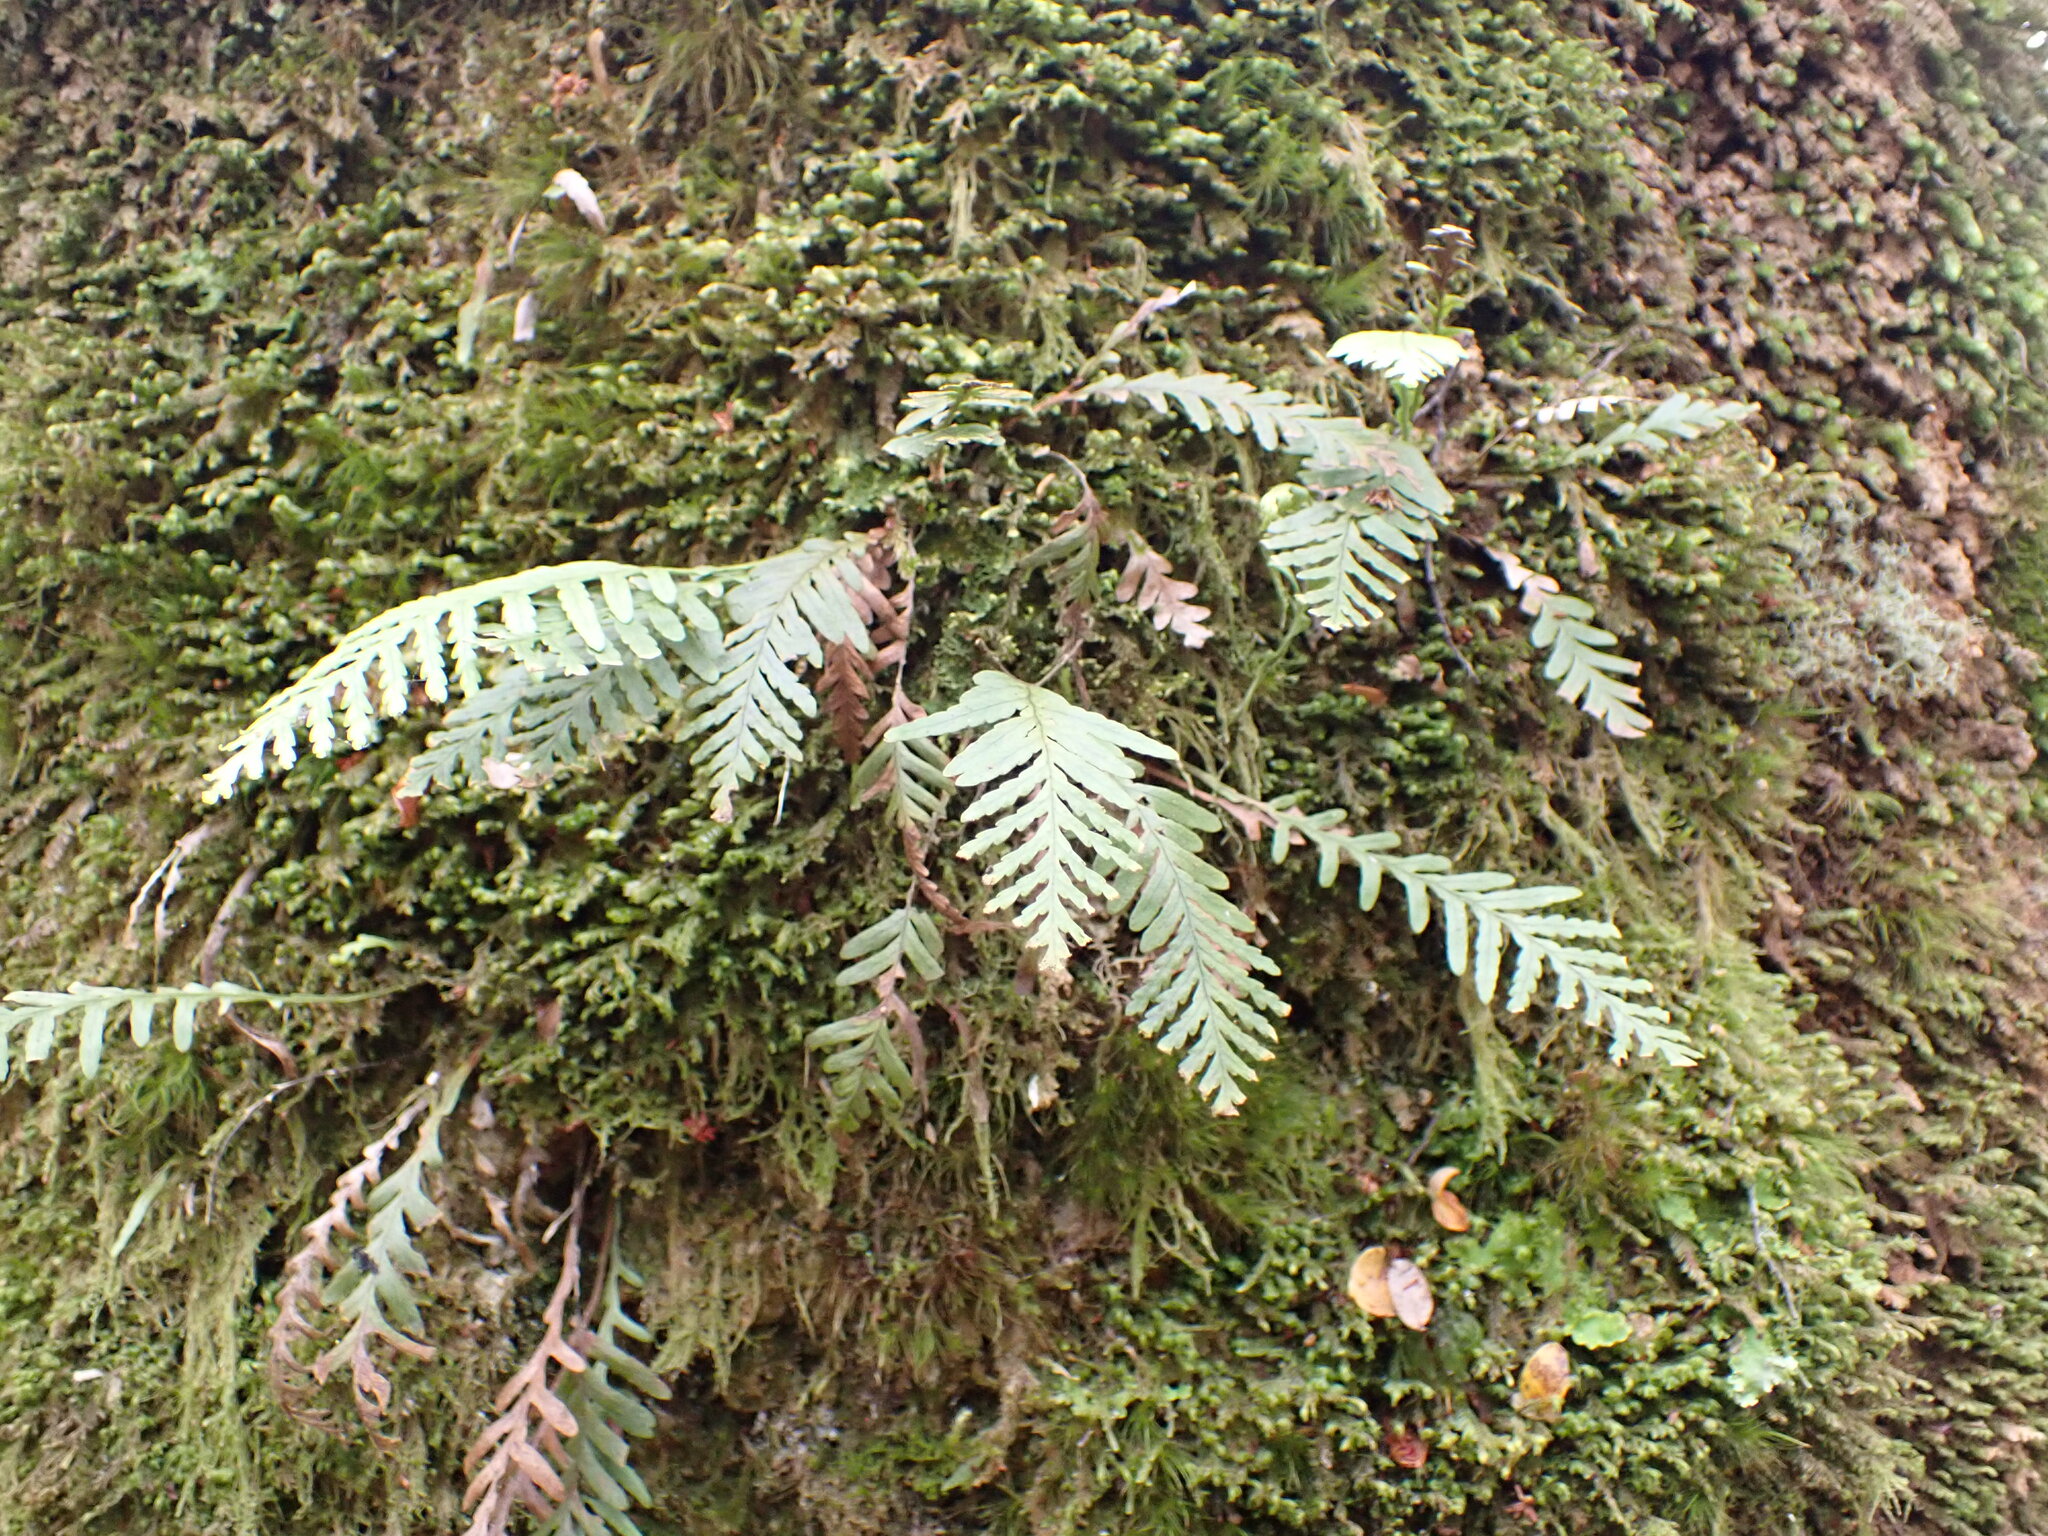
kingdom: Plantae
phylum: Tracheophyta
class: Polypodiopsida
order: Polypodiales
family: Polypodiaceae
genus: Notogrammitis
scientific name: Notogrammitis heterophylla
